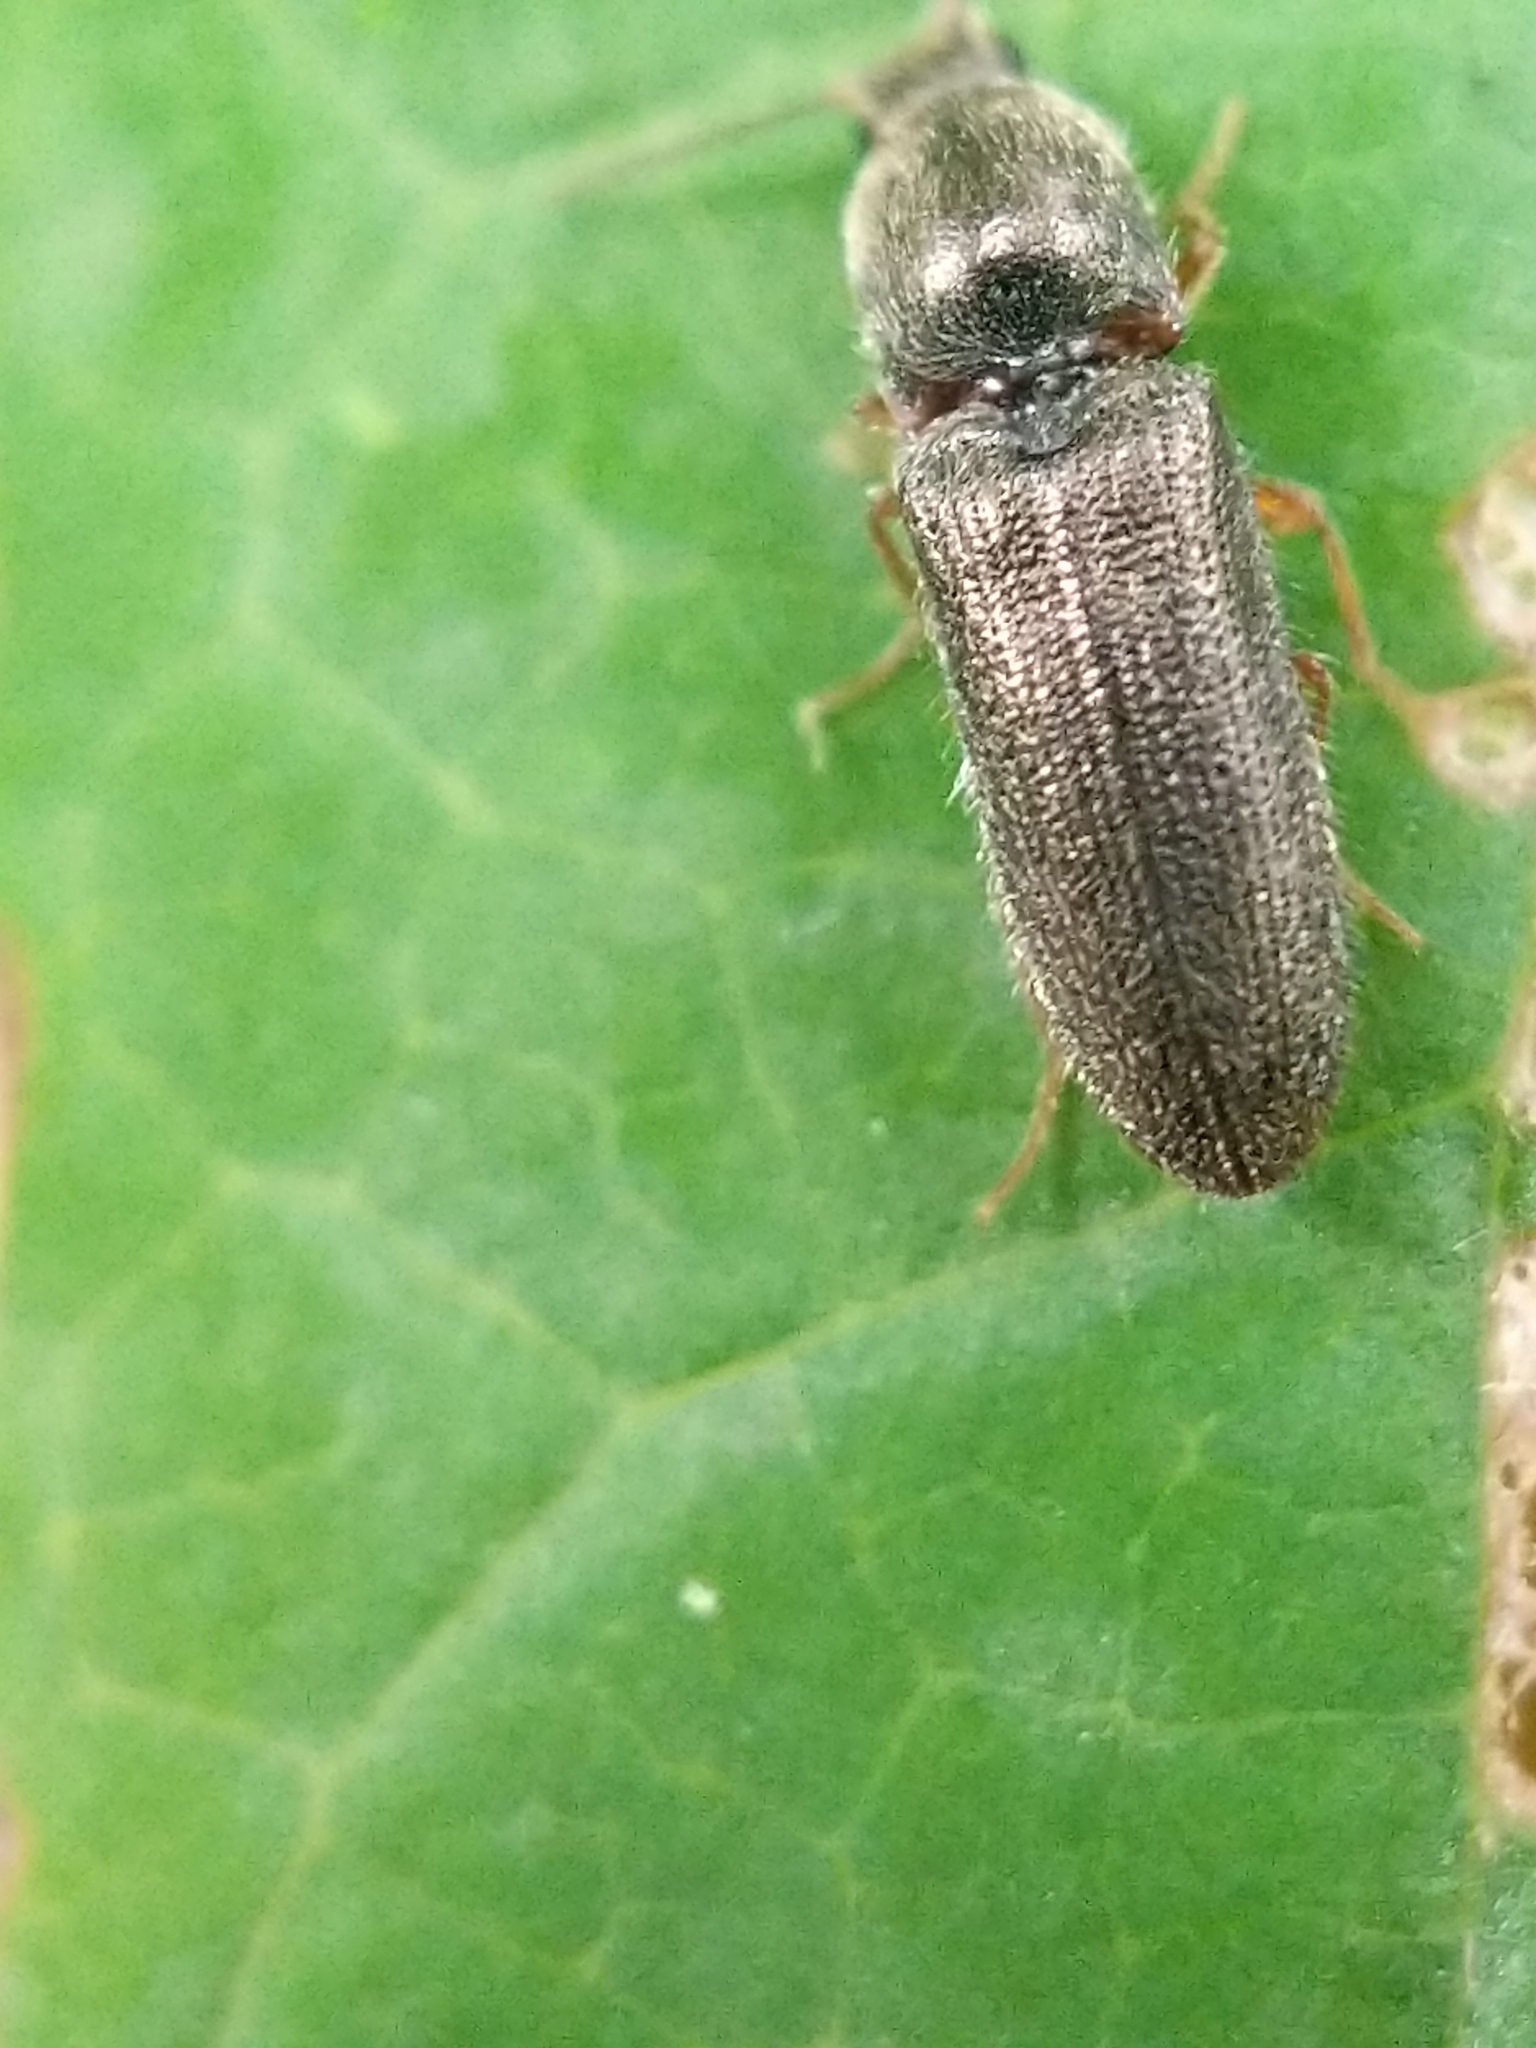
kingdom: Animalia
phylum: Arthropoda
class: Insecta
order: Coleoptera
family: Elateridae
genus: Limonius
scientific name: Limonius basilaris
